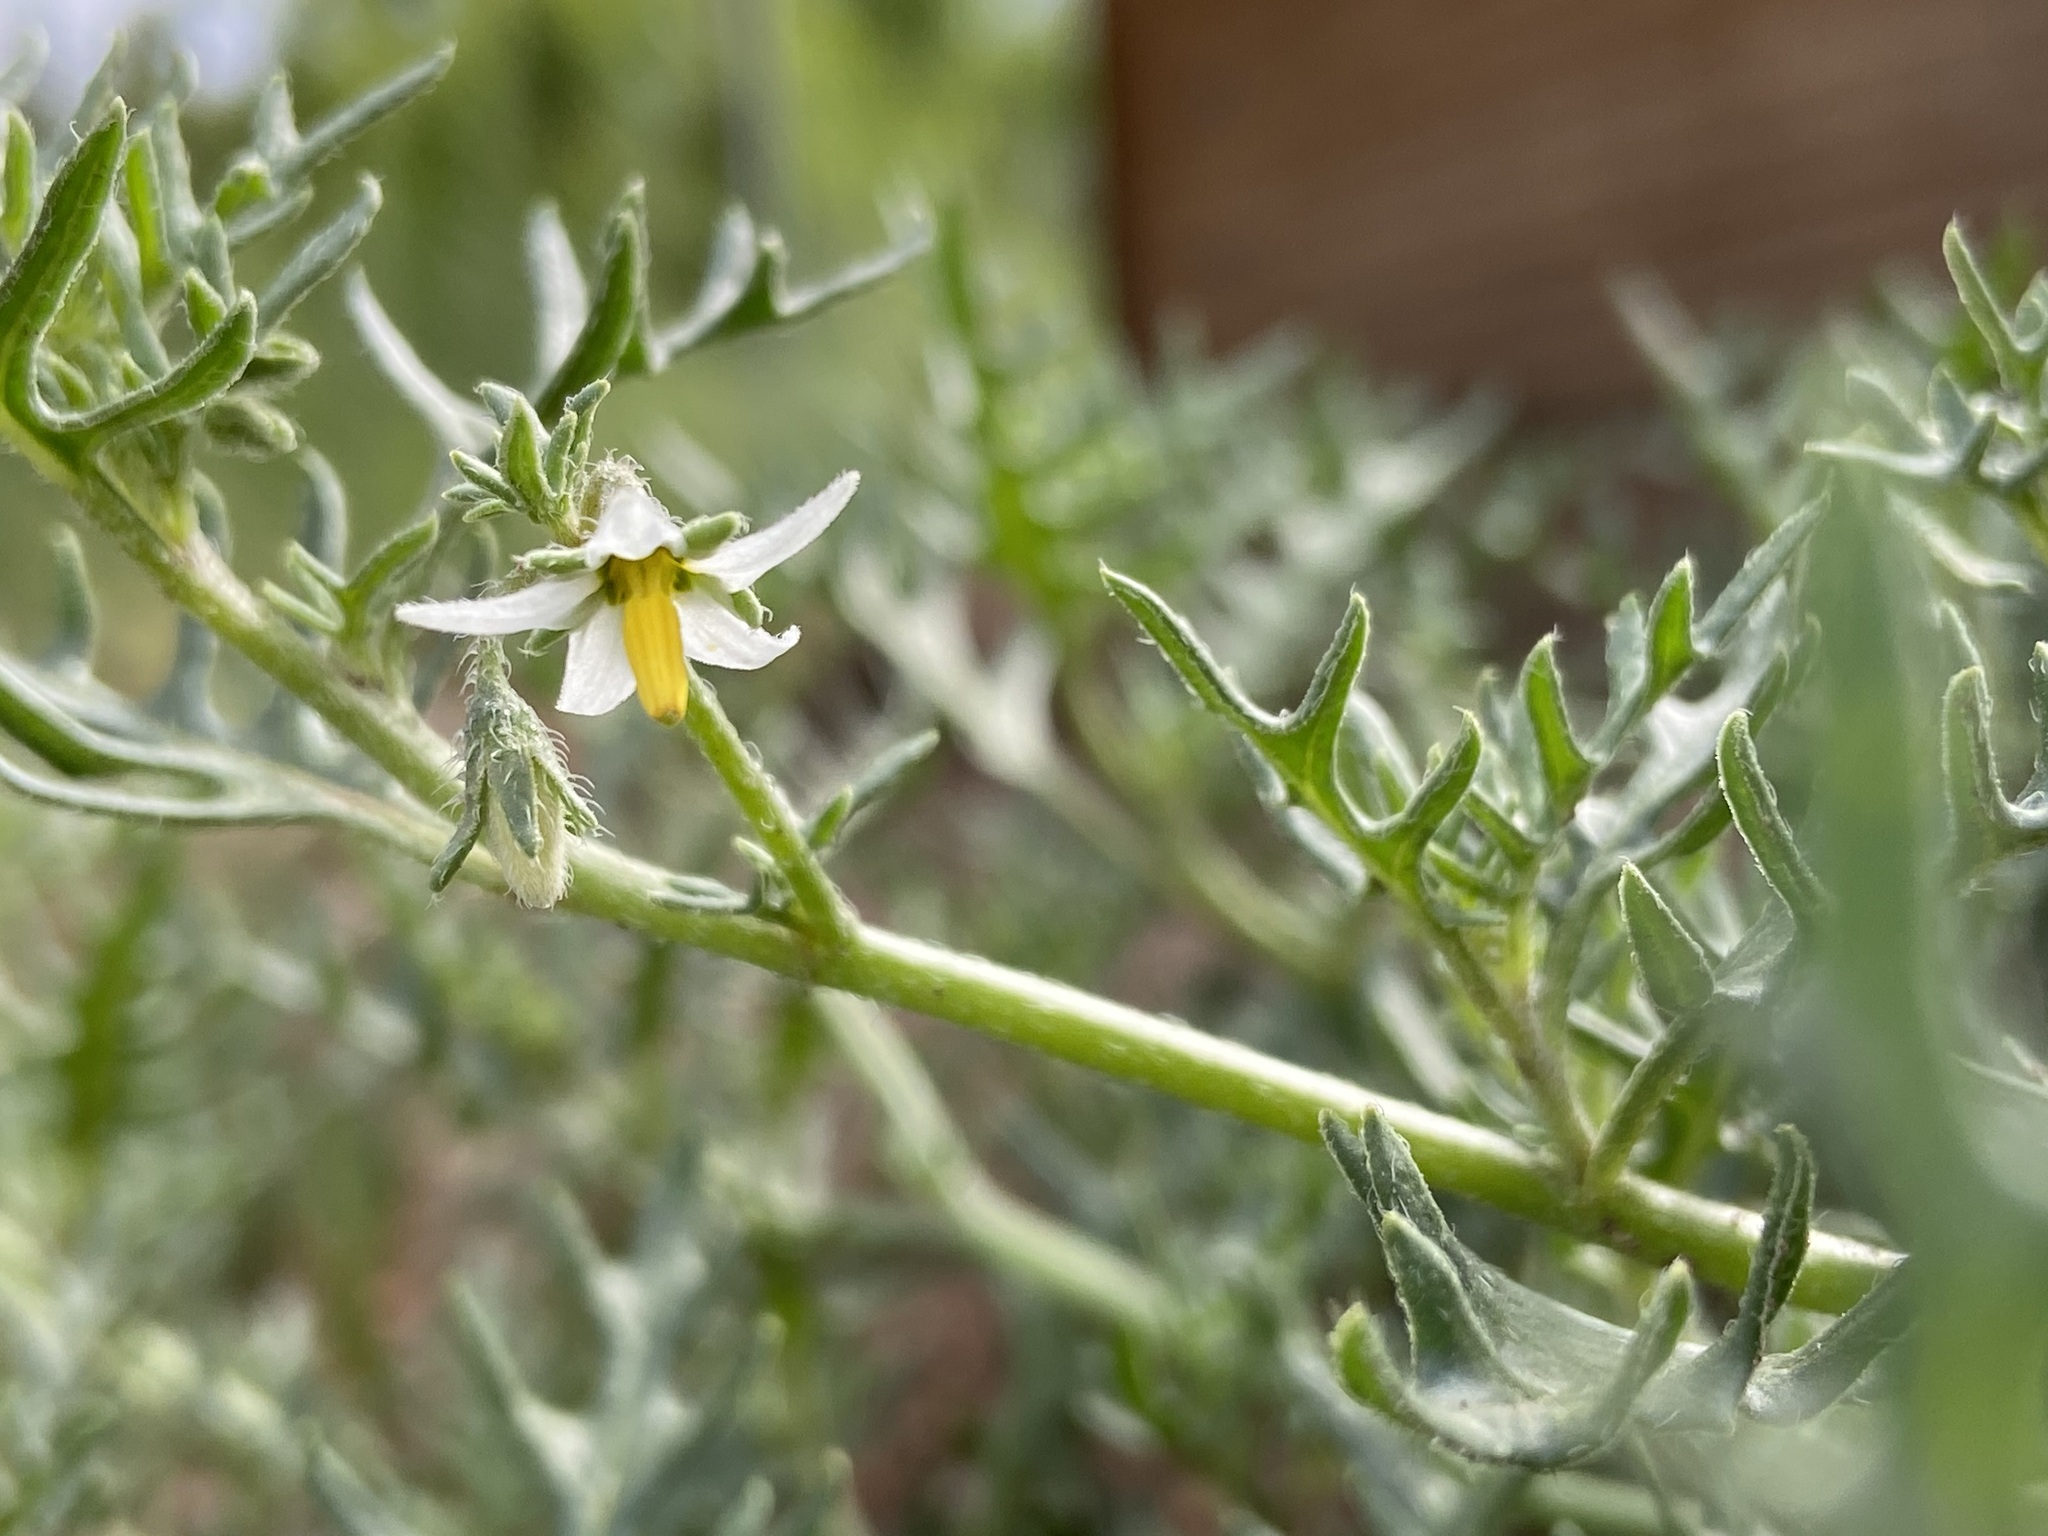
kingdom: Plantae
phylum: Tracheophyta
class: Magnoliopsida
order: Solanales
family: Solanaceae
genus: Solanum
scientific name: Solanum triflorum
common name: Small nightshade
